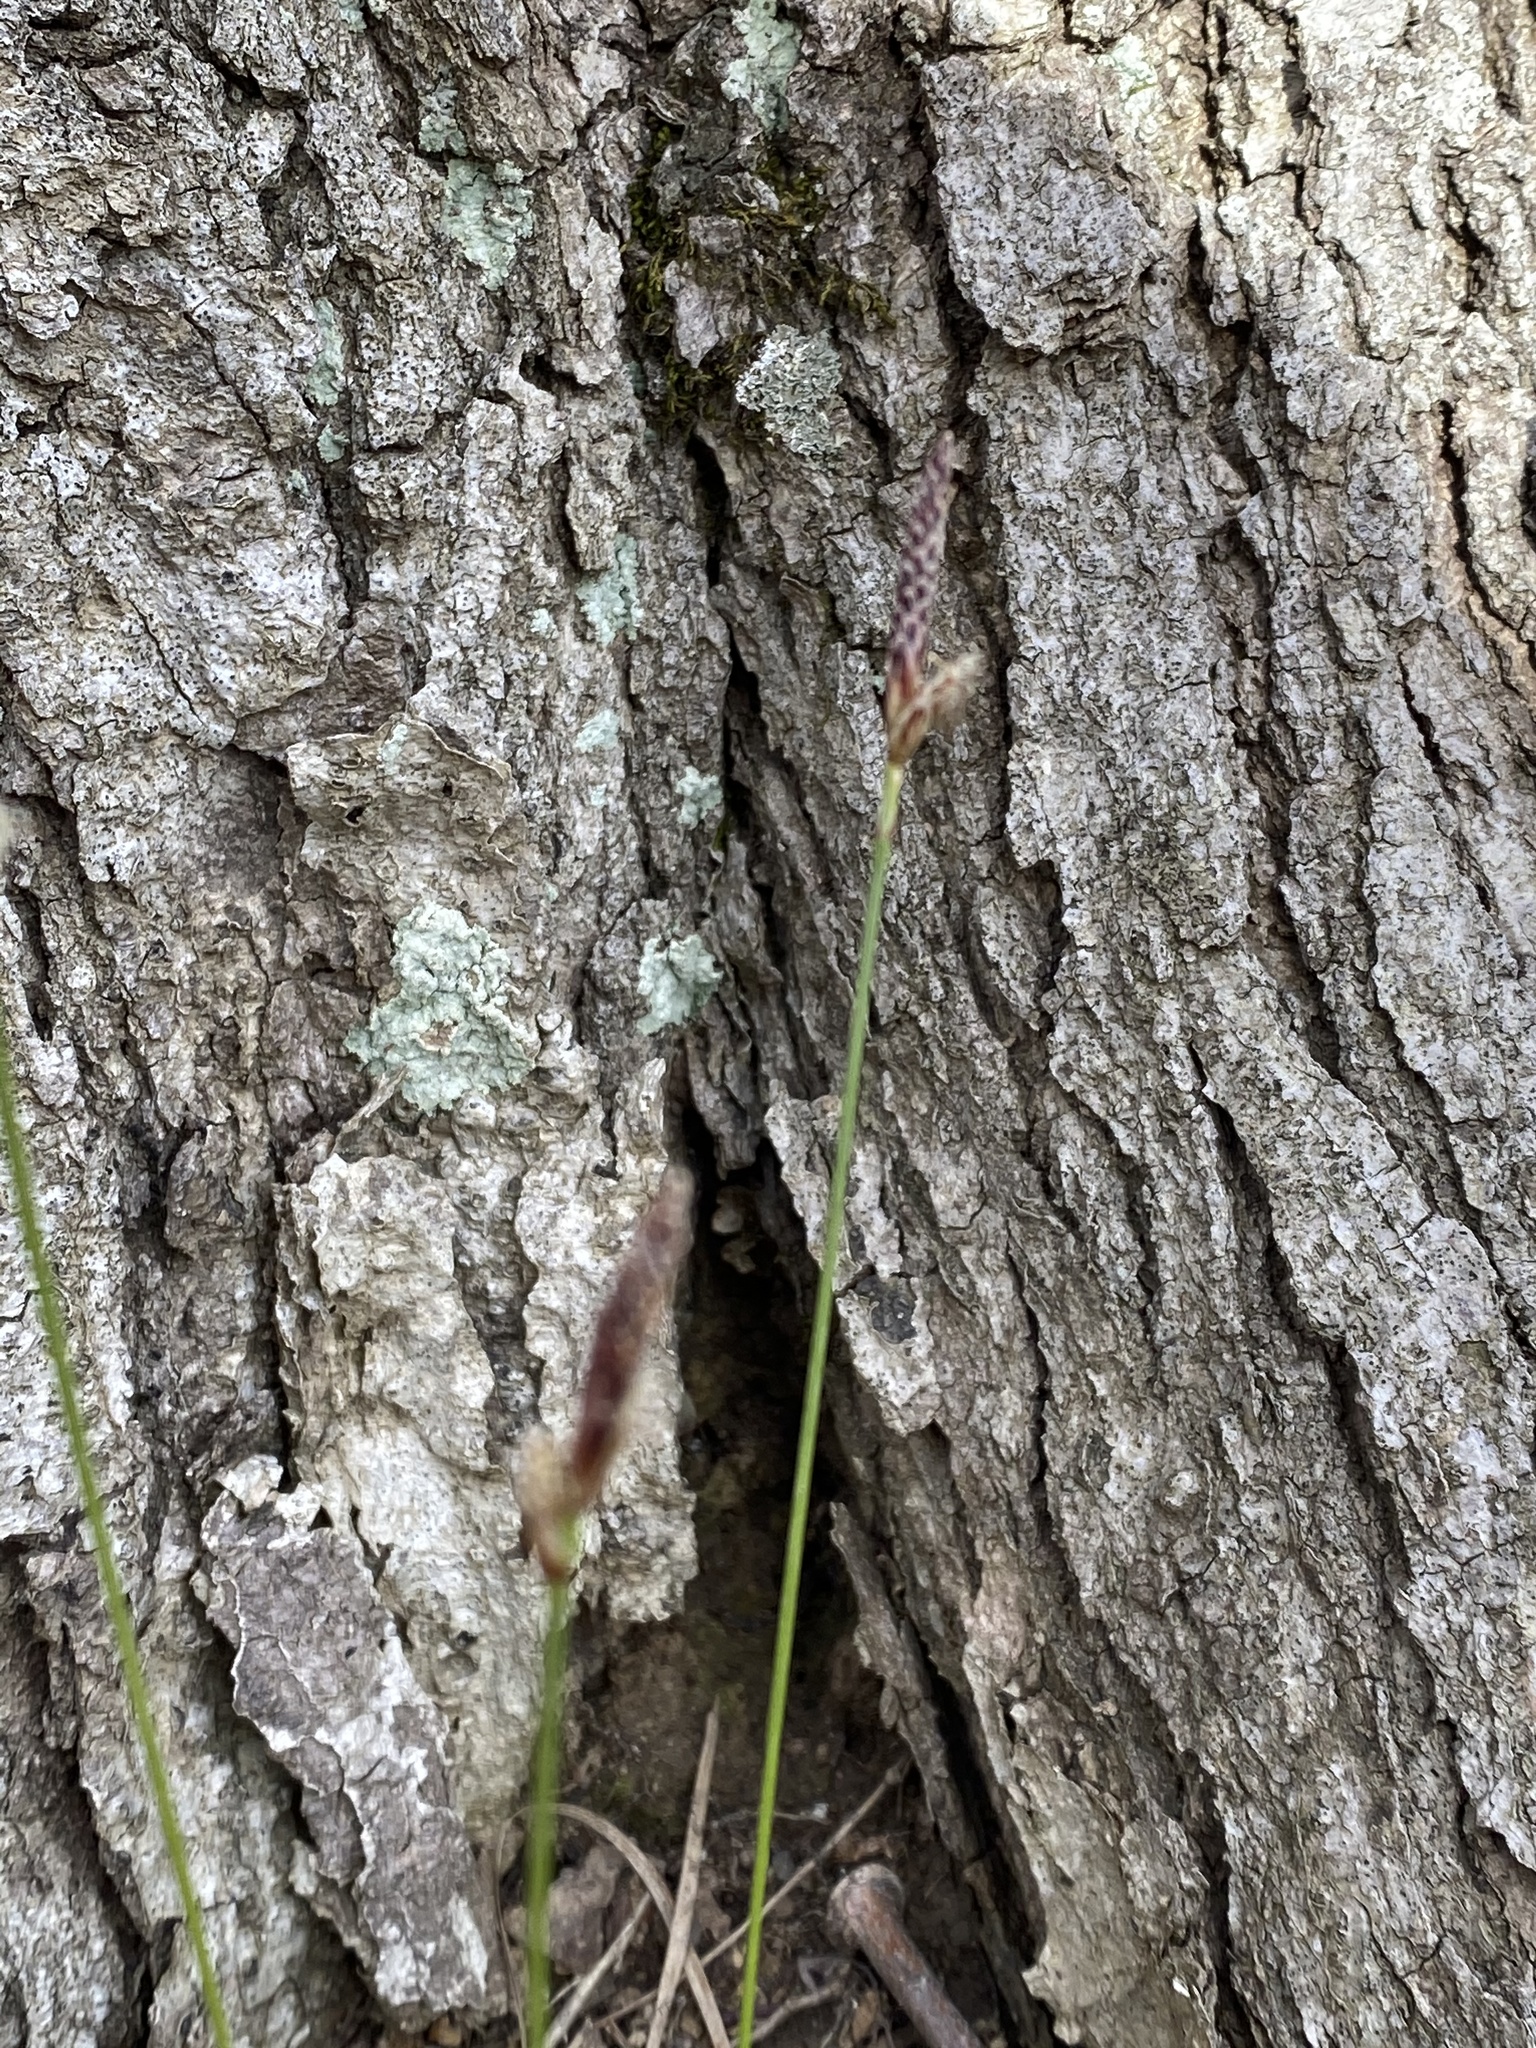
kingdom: Plantae
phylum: Tracheophyta
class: Liliopsida
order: Poales
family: Cyperaceae
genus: Carex
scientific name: Carex pensylvanica
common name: Common oak sedge
